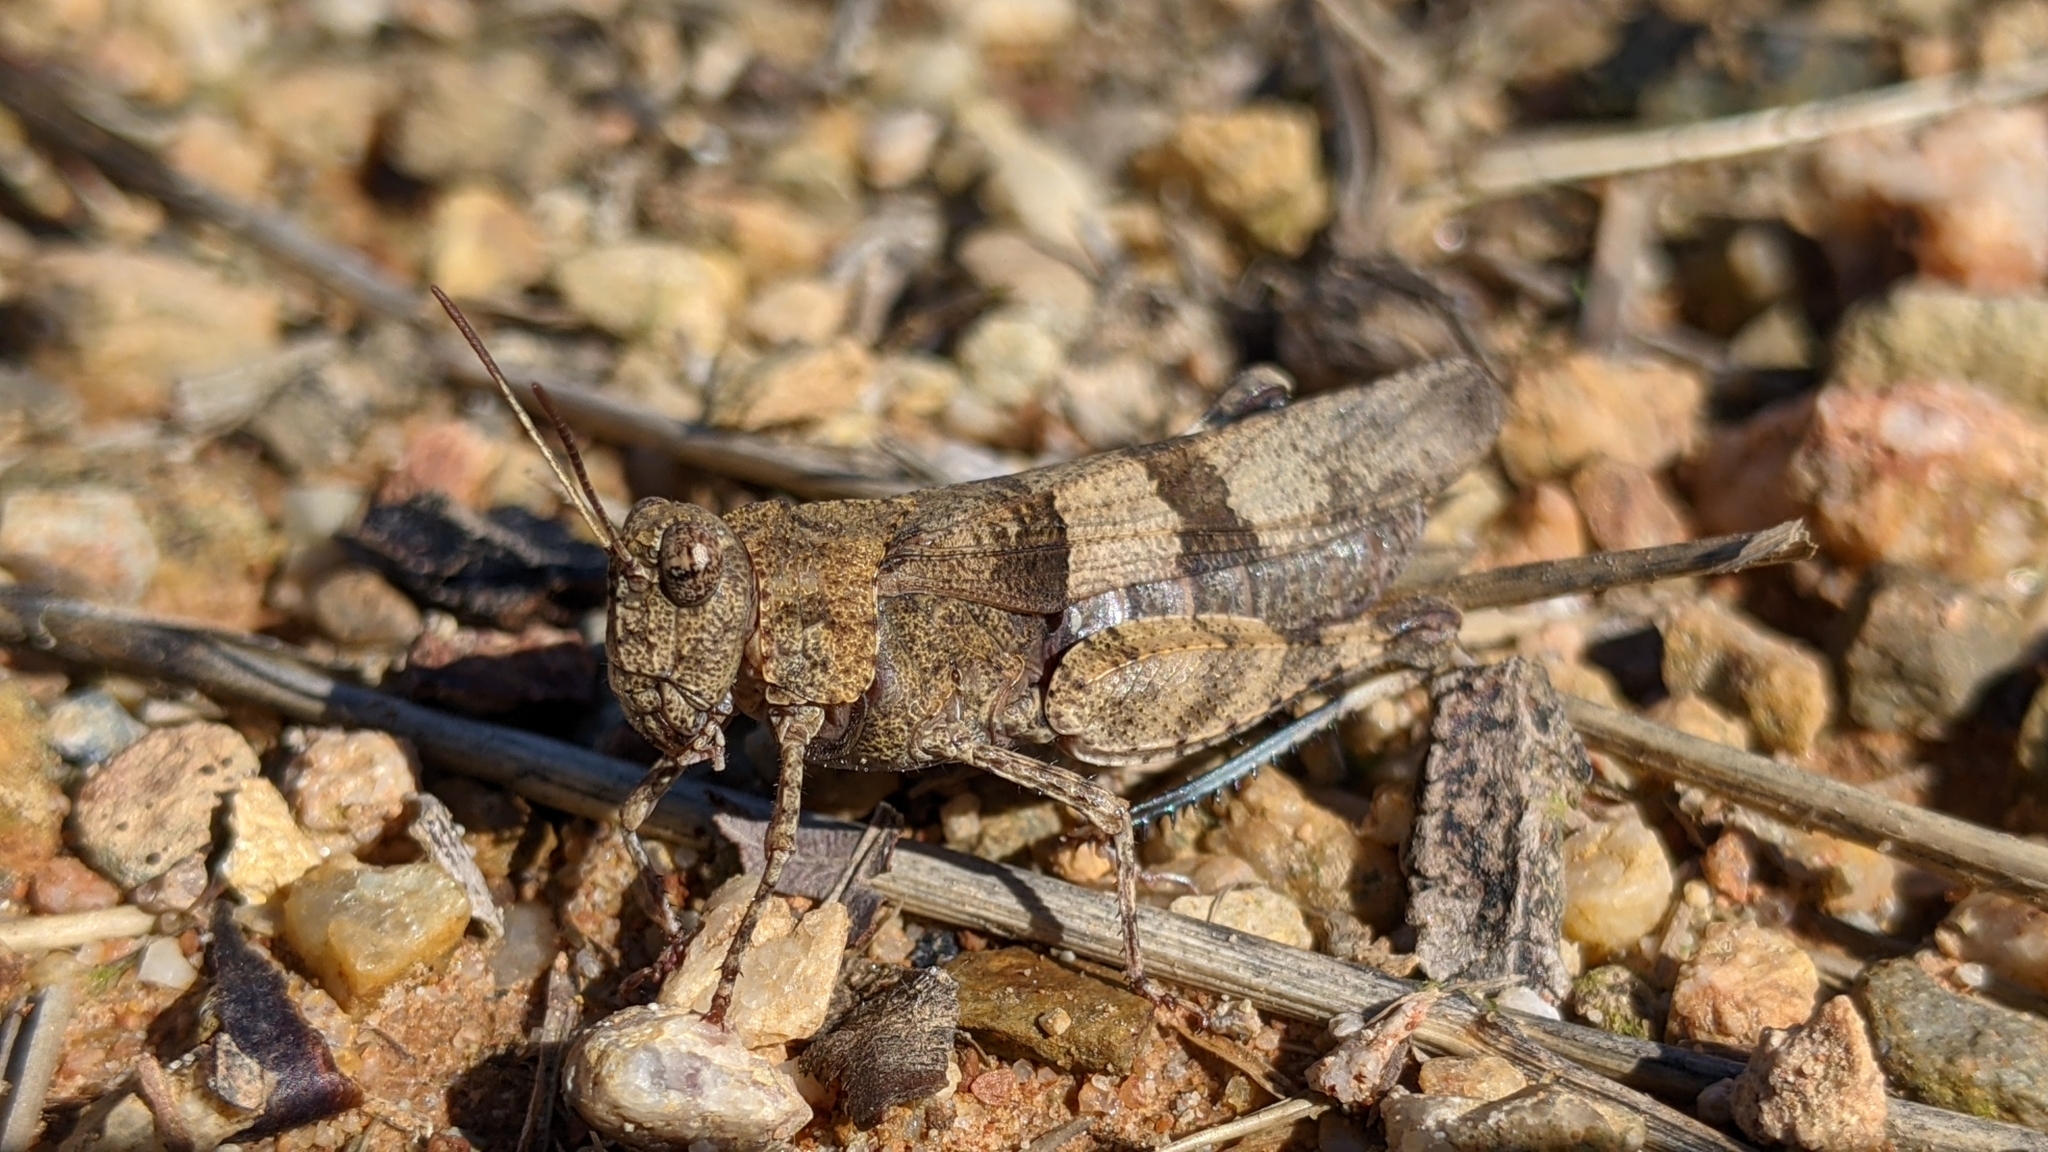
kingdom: Animalia
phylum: Arthropoda
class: Insecta
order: Orthoptera
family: Acrididae
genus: Oedipoda
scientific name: Oedipoda caerulescens
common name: Blue-winged grasshopper
